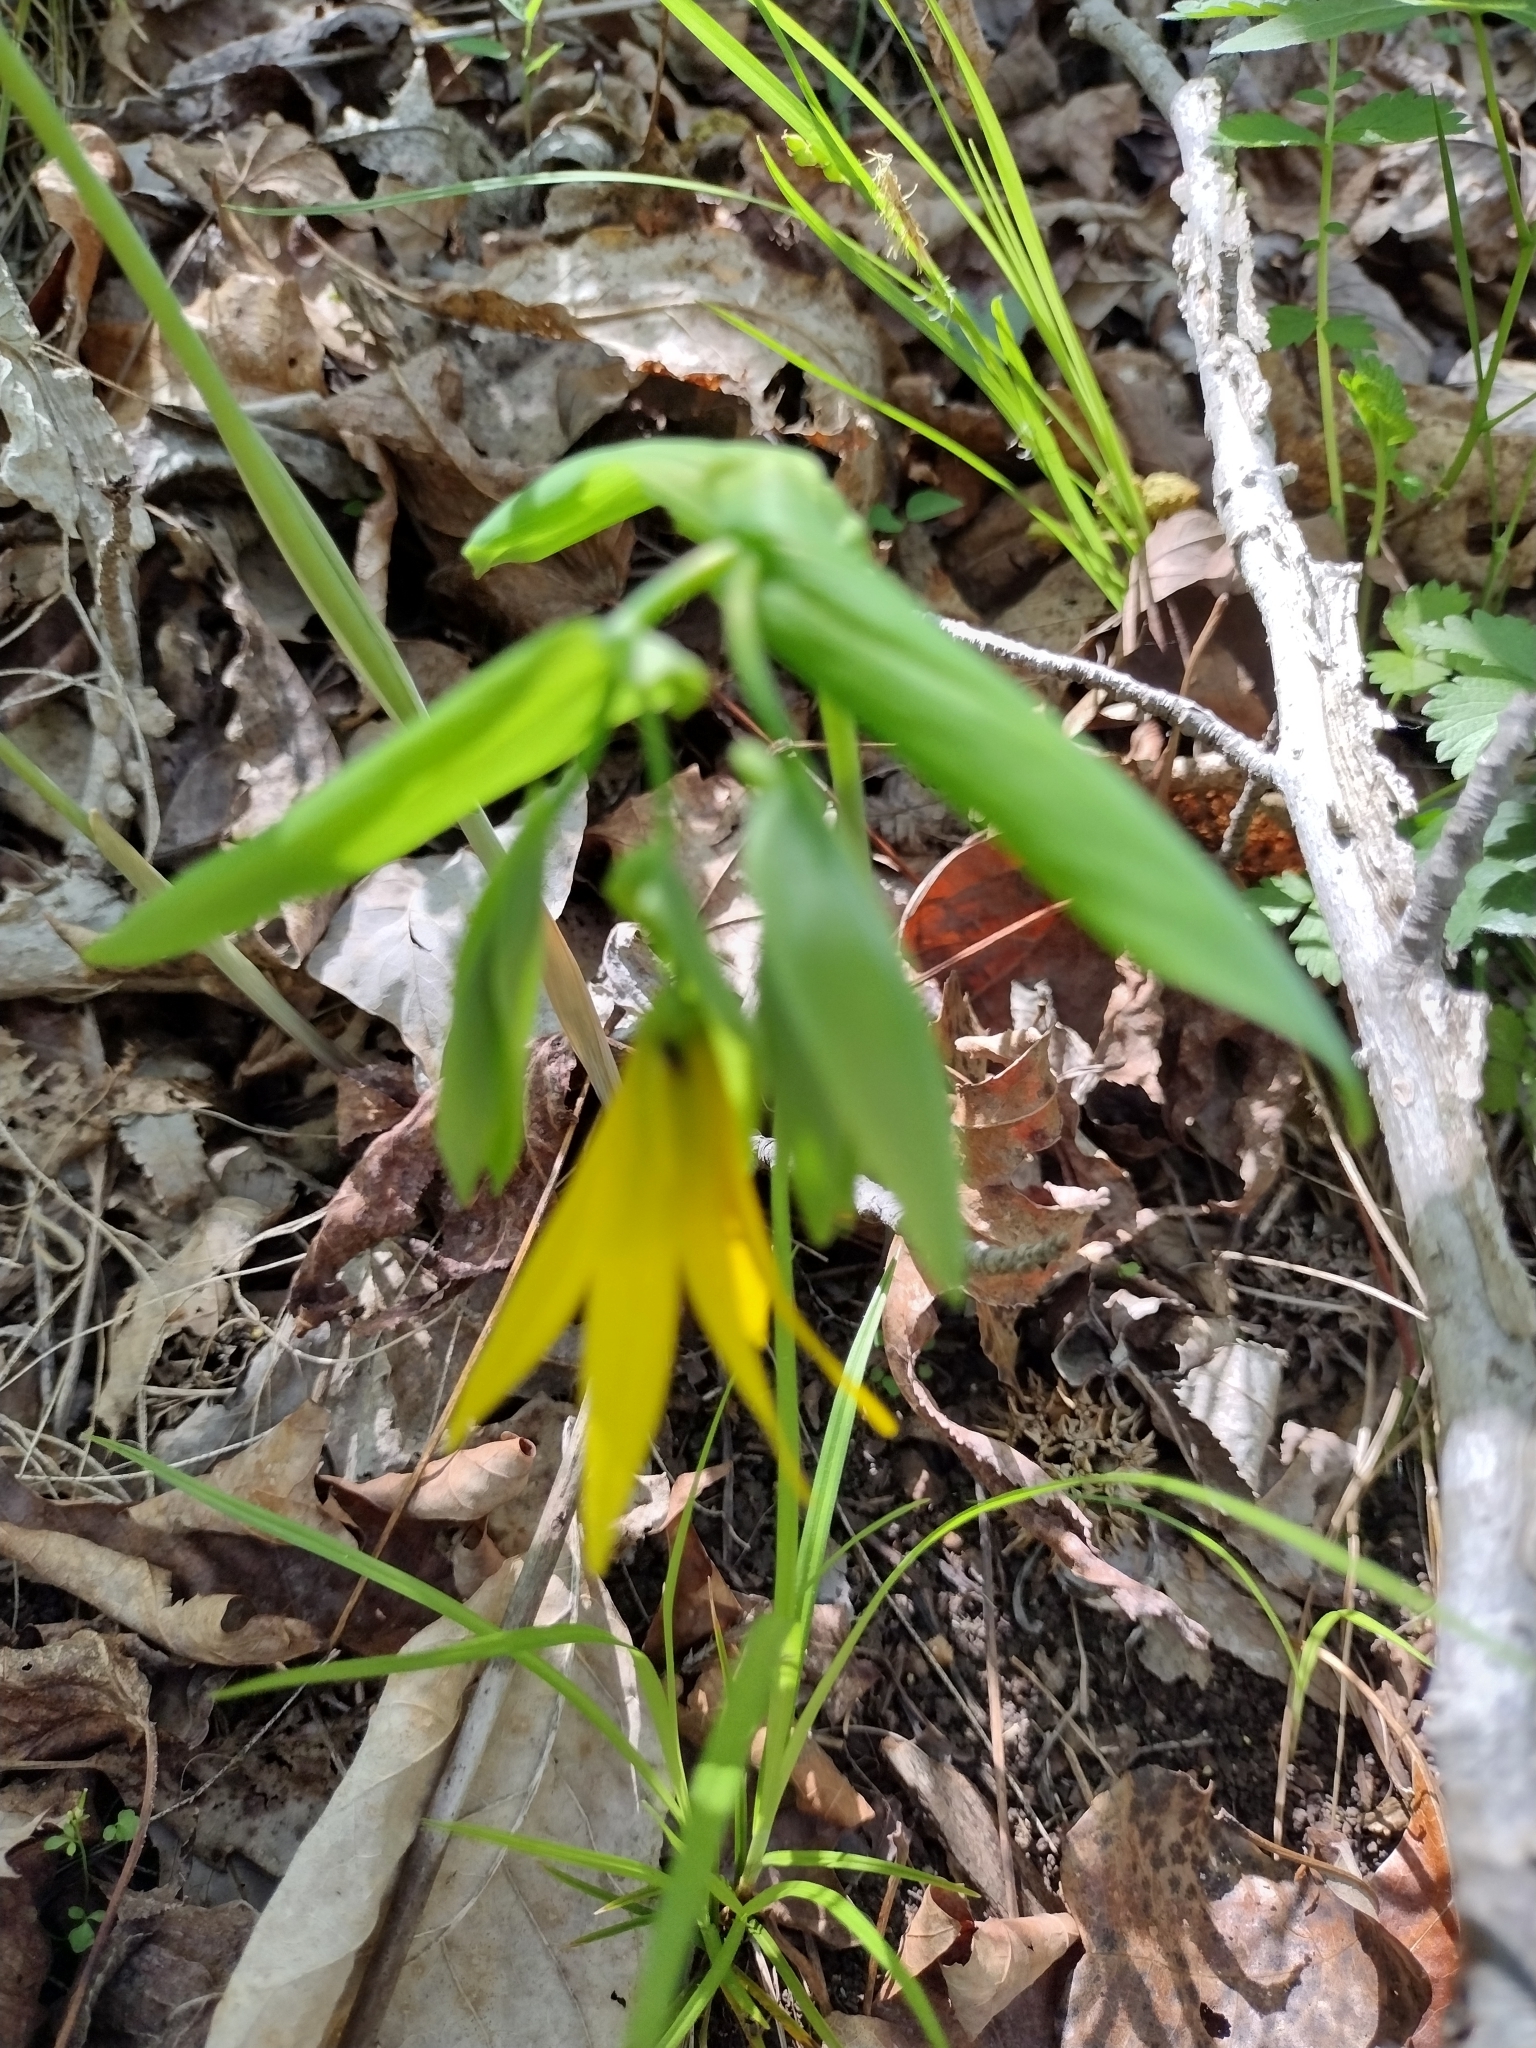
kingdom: Plantae
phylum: Tracheophyta
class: Liliopsida
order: Liliales
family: Colchicaceae
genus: Uvularia
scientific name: Uvularia grandiflora
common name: Bellwort
